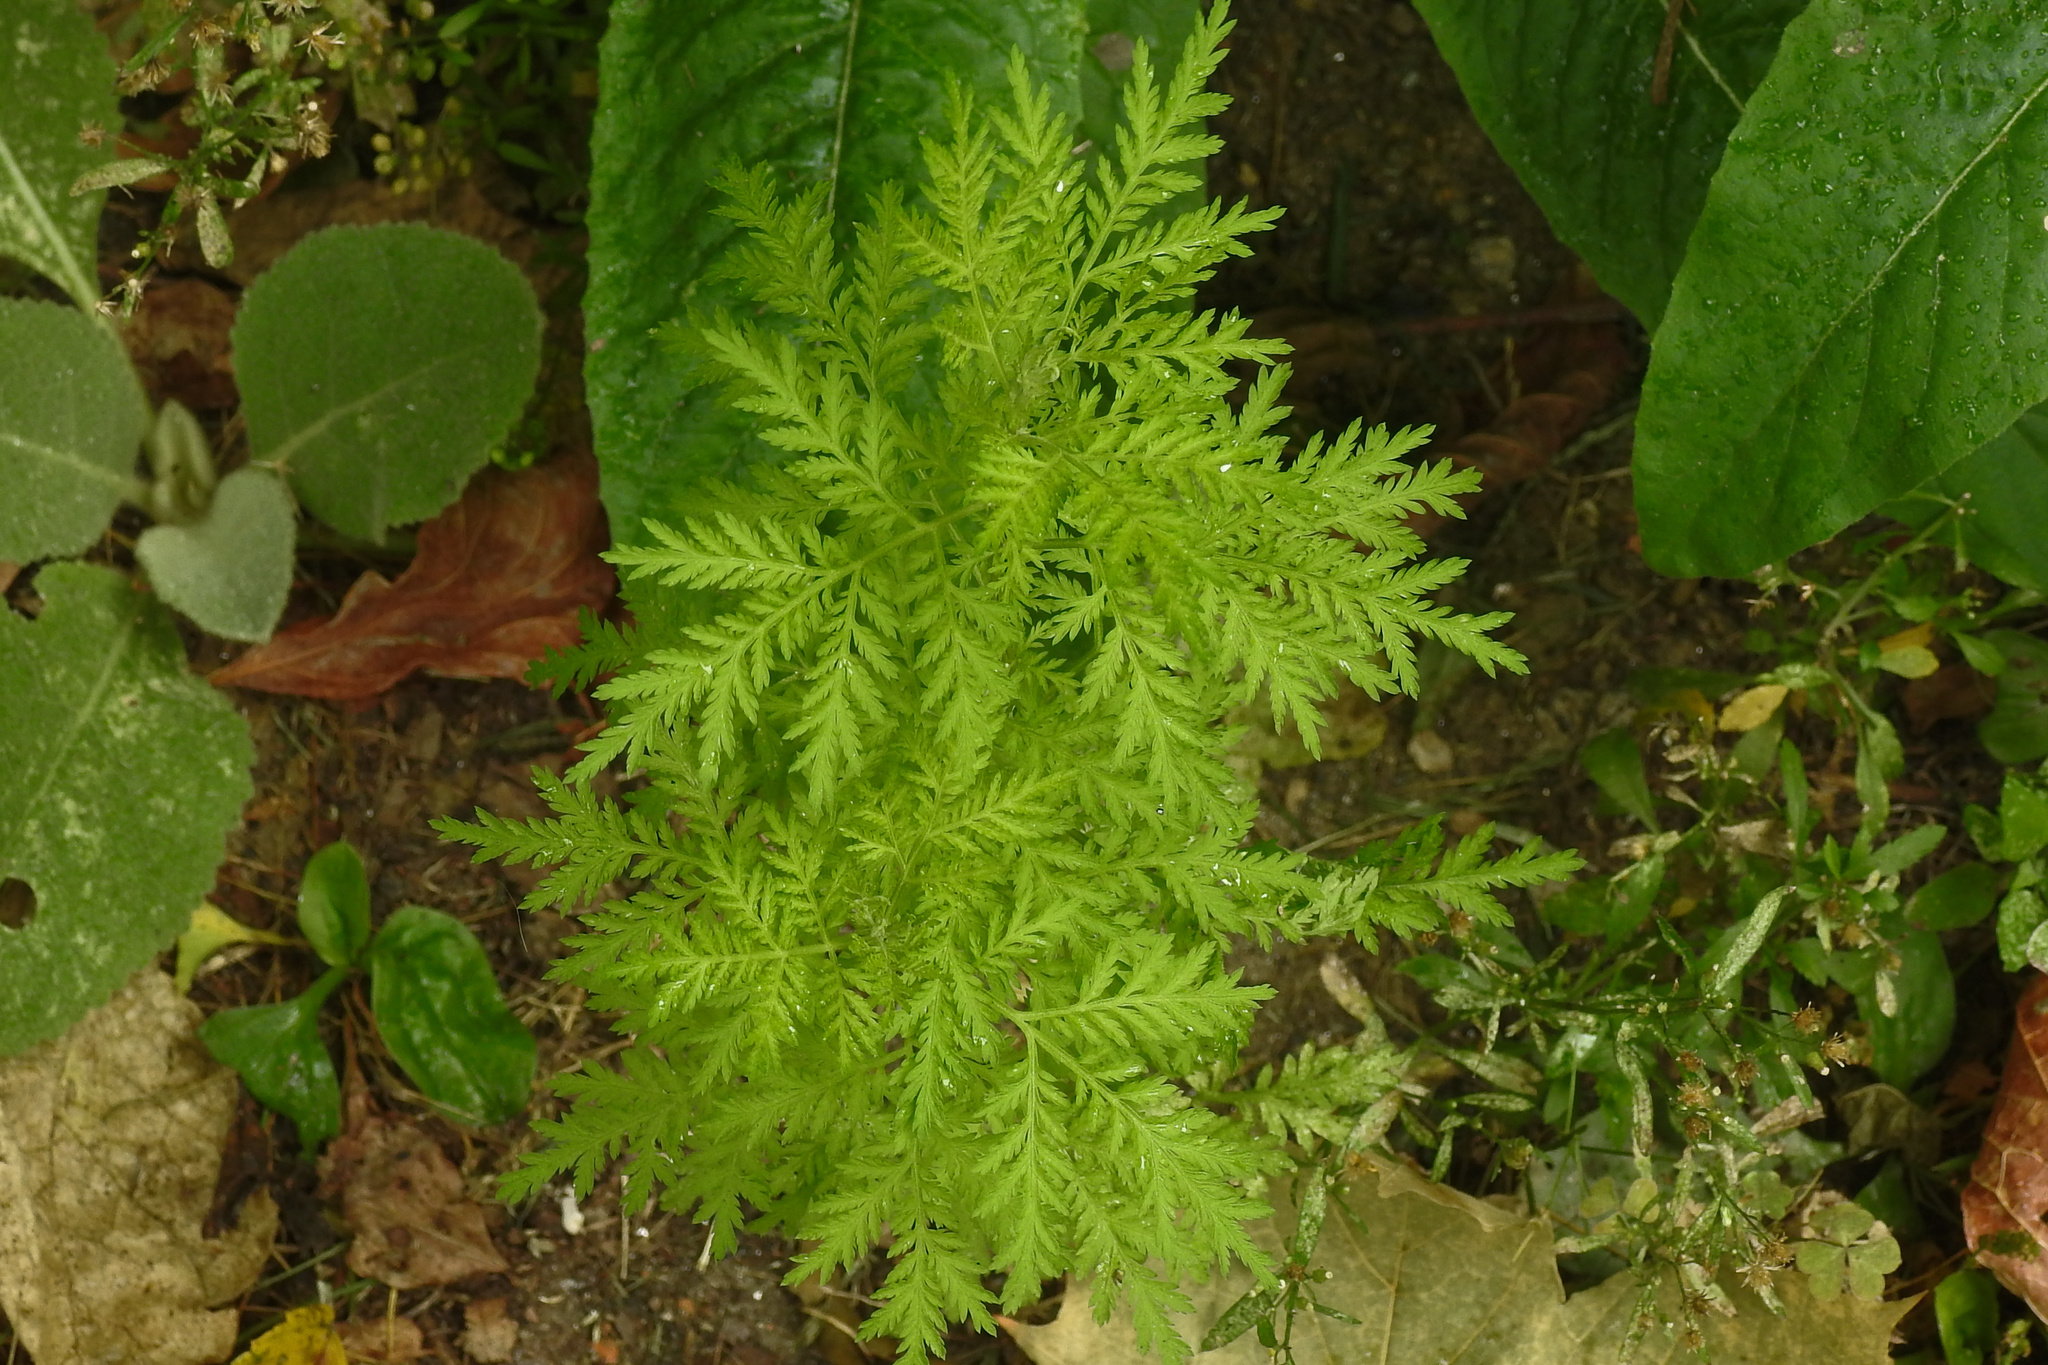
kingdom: Plantae
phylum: Tracheophyta
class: Magnoliopsida
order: Asterales
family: Asteraceae
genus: Artemisia
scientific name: Artemisia annua
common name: Sweet sagewort
